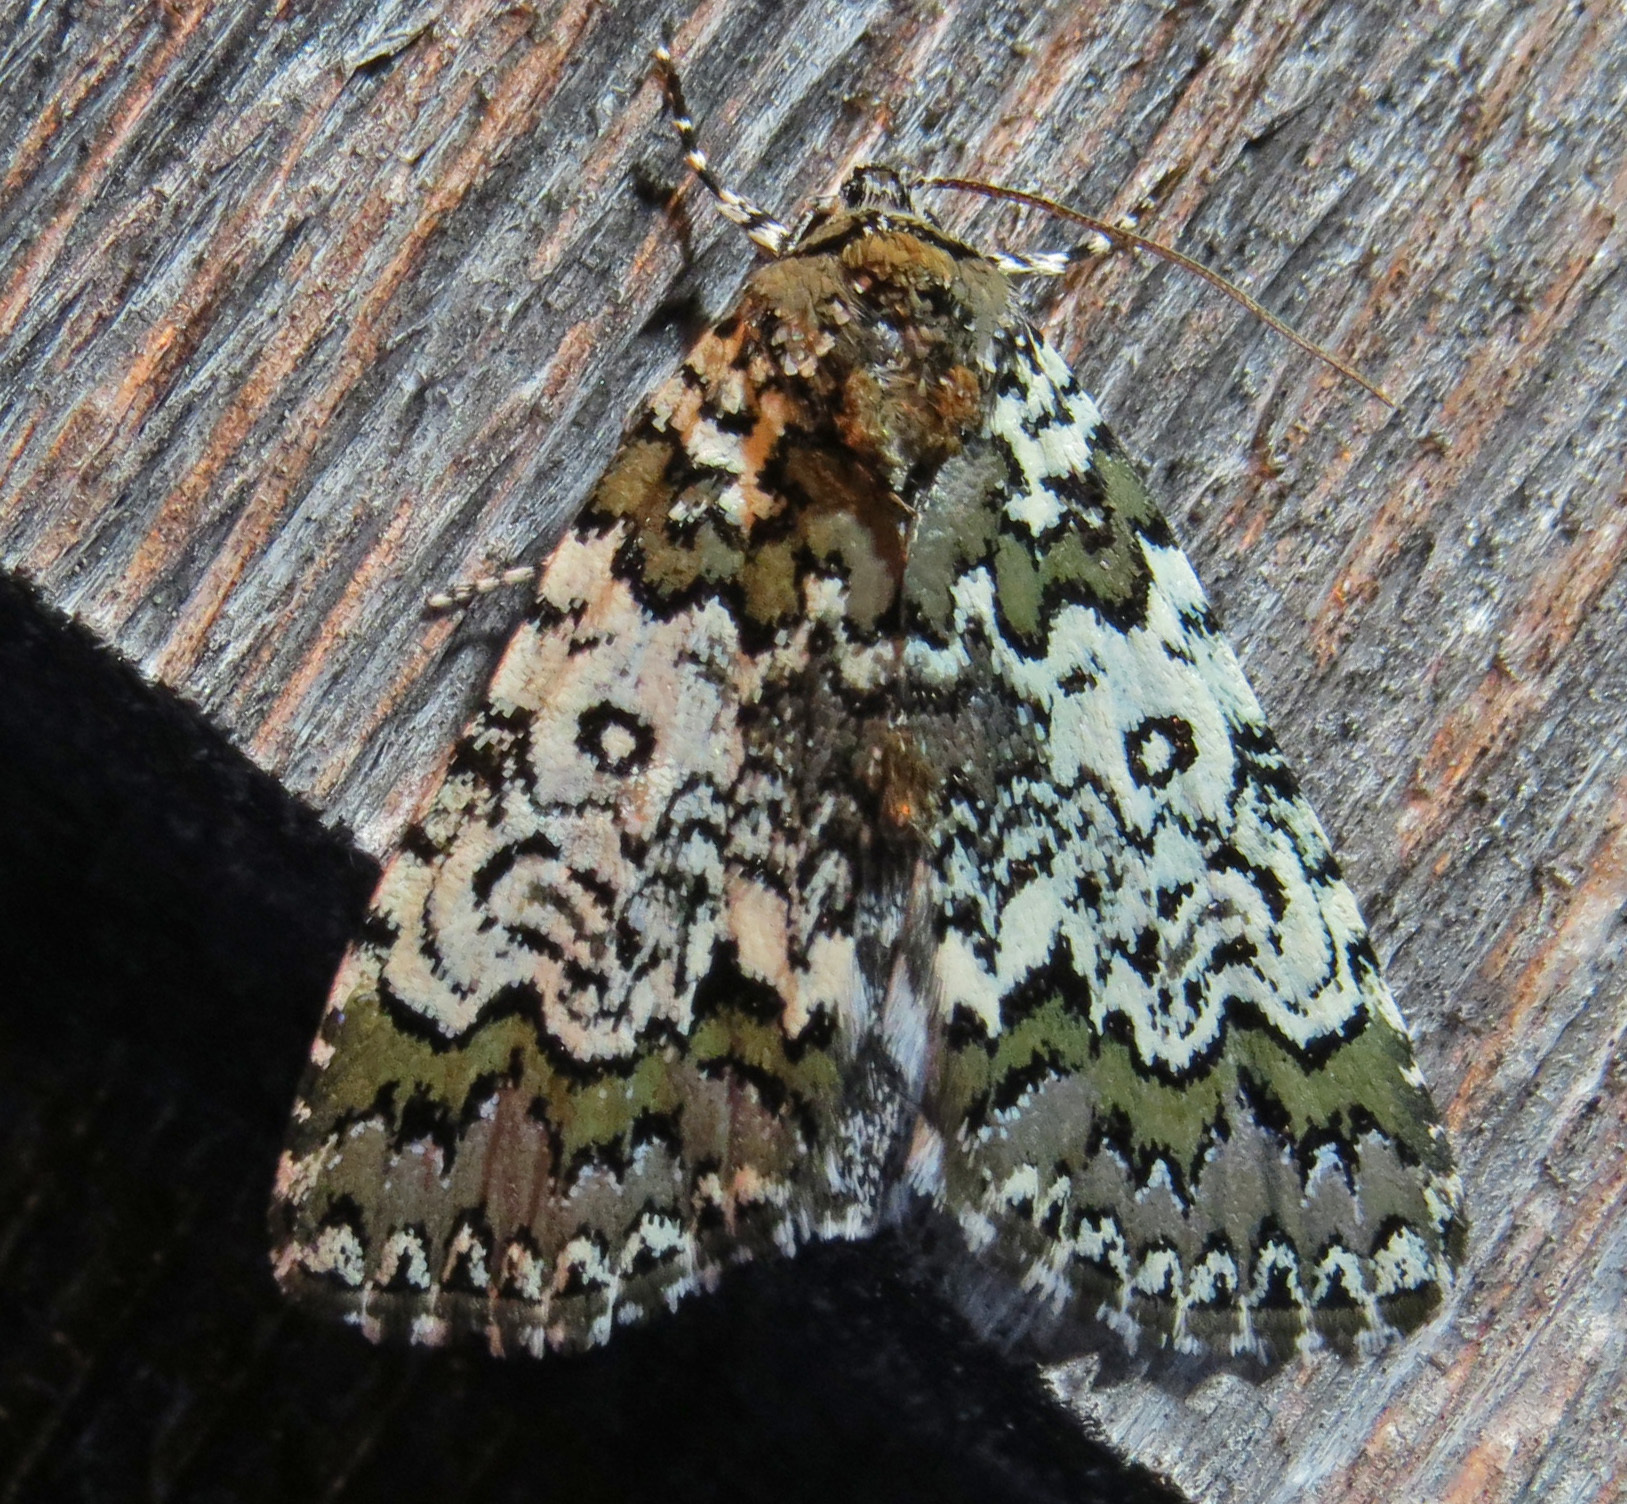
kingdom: Animalia
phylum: Arthropoda
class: Insecta
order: Lepidoptera
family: Noctuidae
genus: Cerma
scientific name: Cerma cora
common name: Bird dropping moth
